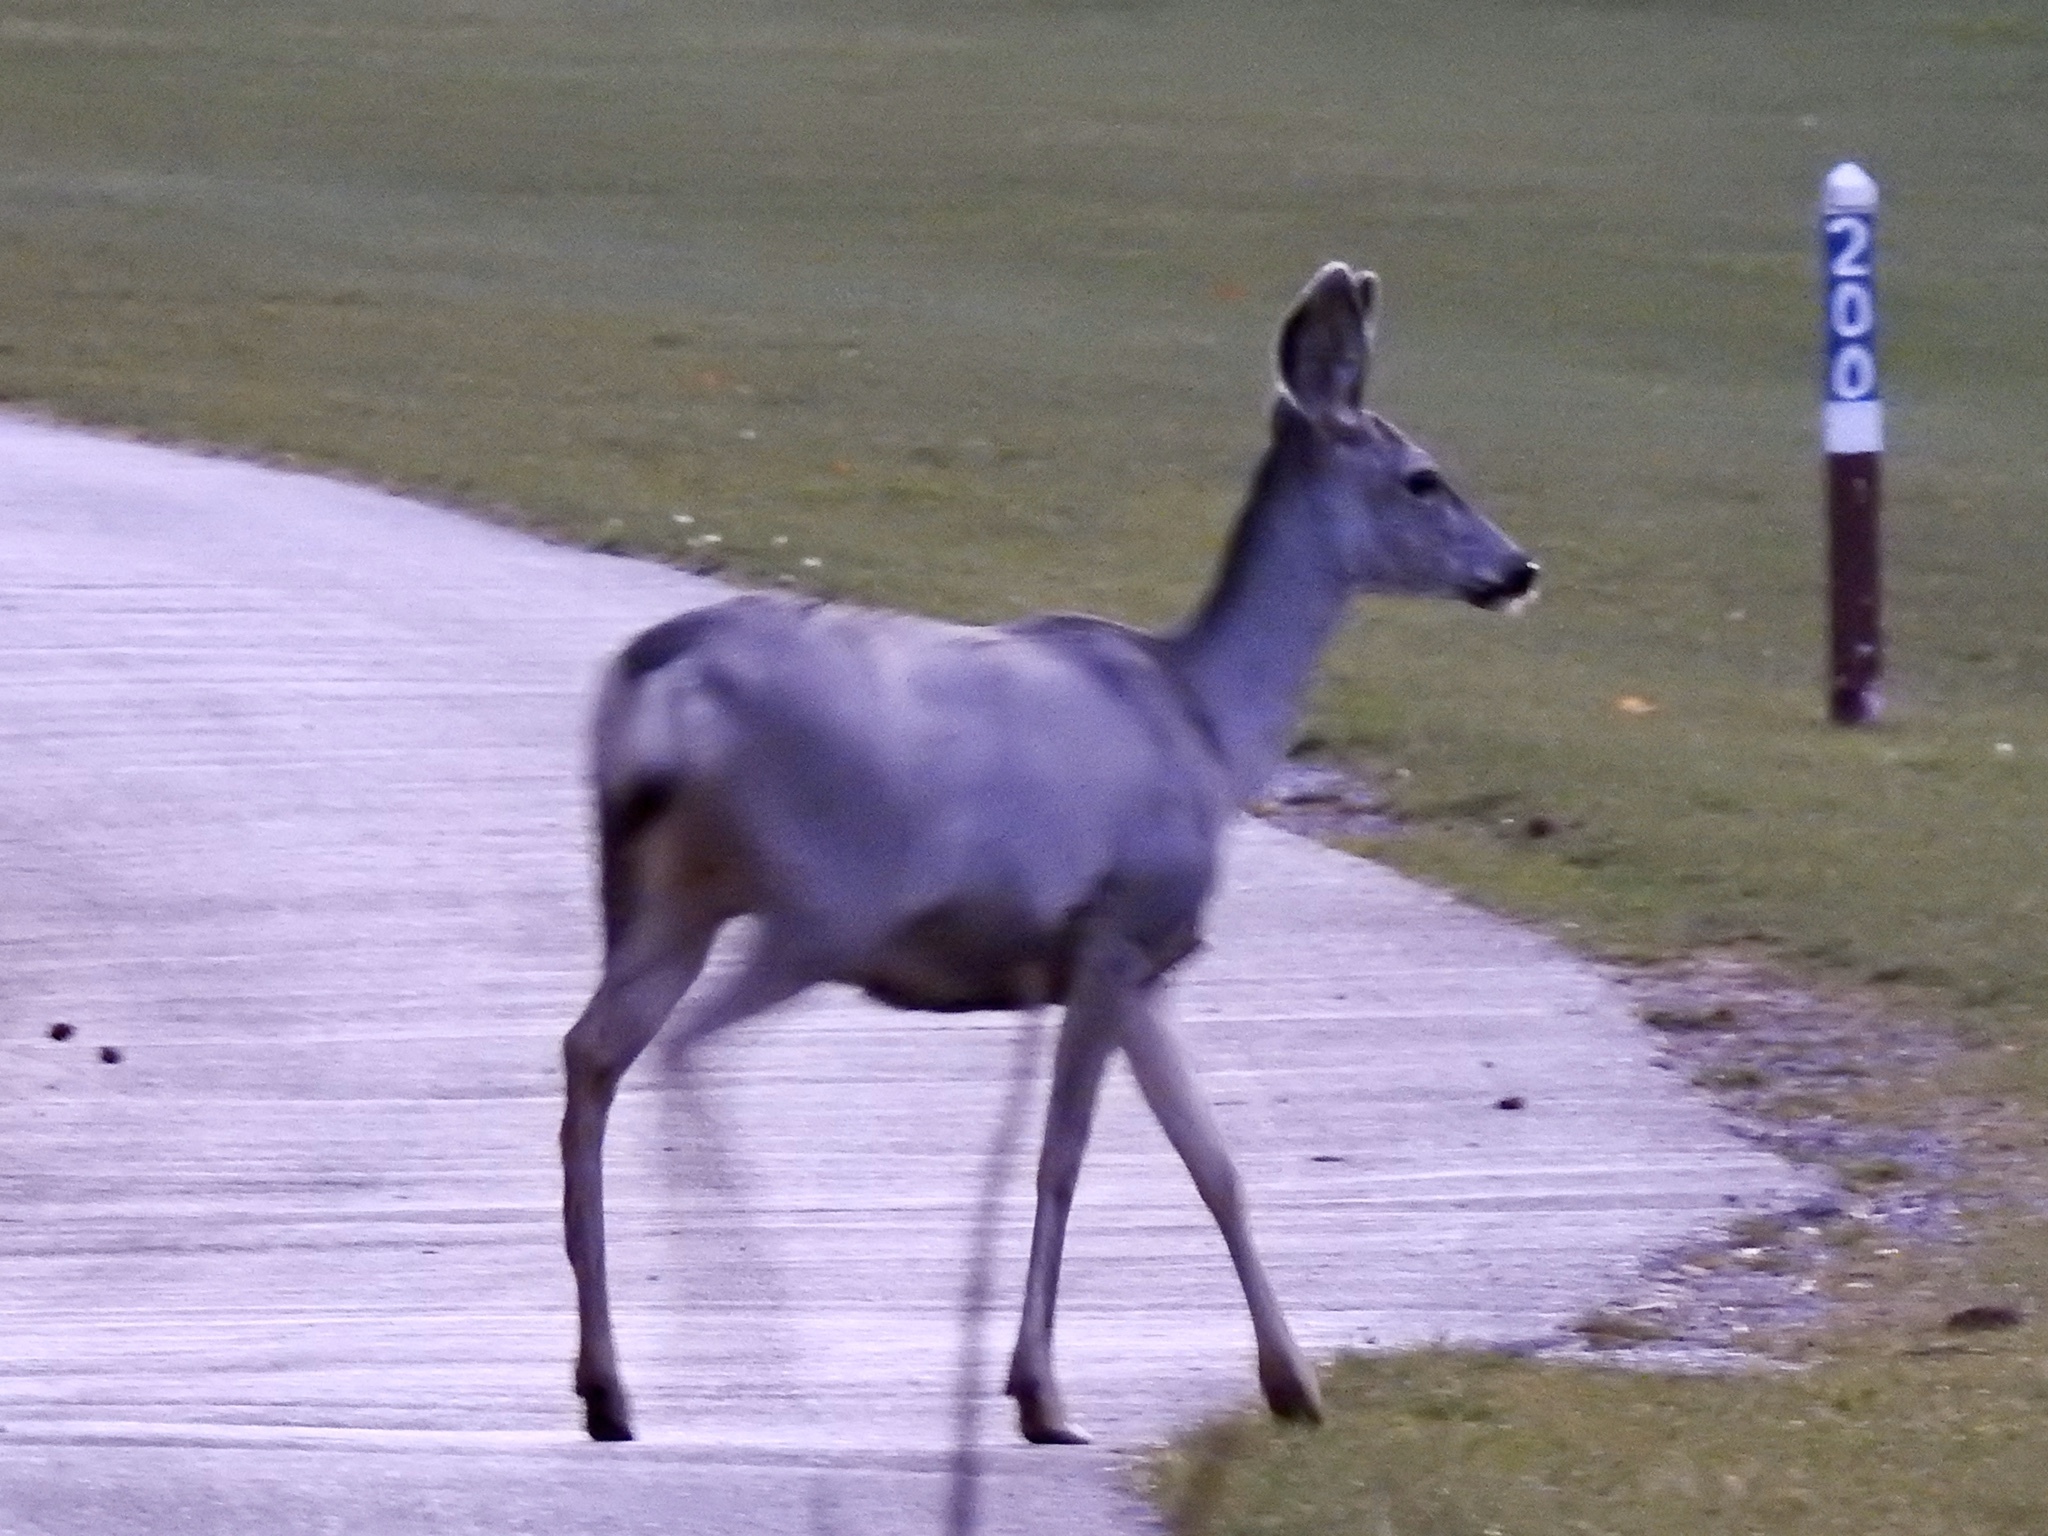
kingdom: Animalia
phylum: Chordata
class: Mammalia
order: Artiodactyla
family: Cervidae
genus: Odocoileus
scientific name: Odocoileus hemionus
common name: Mule deer
